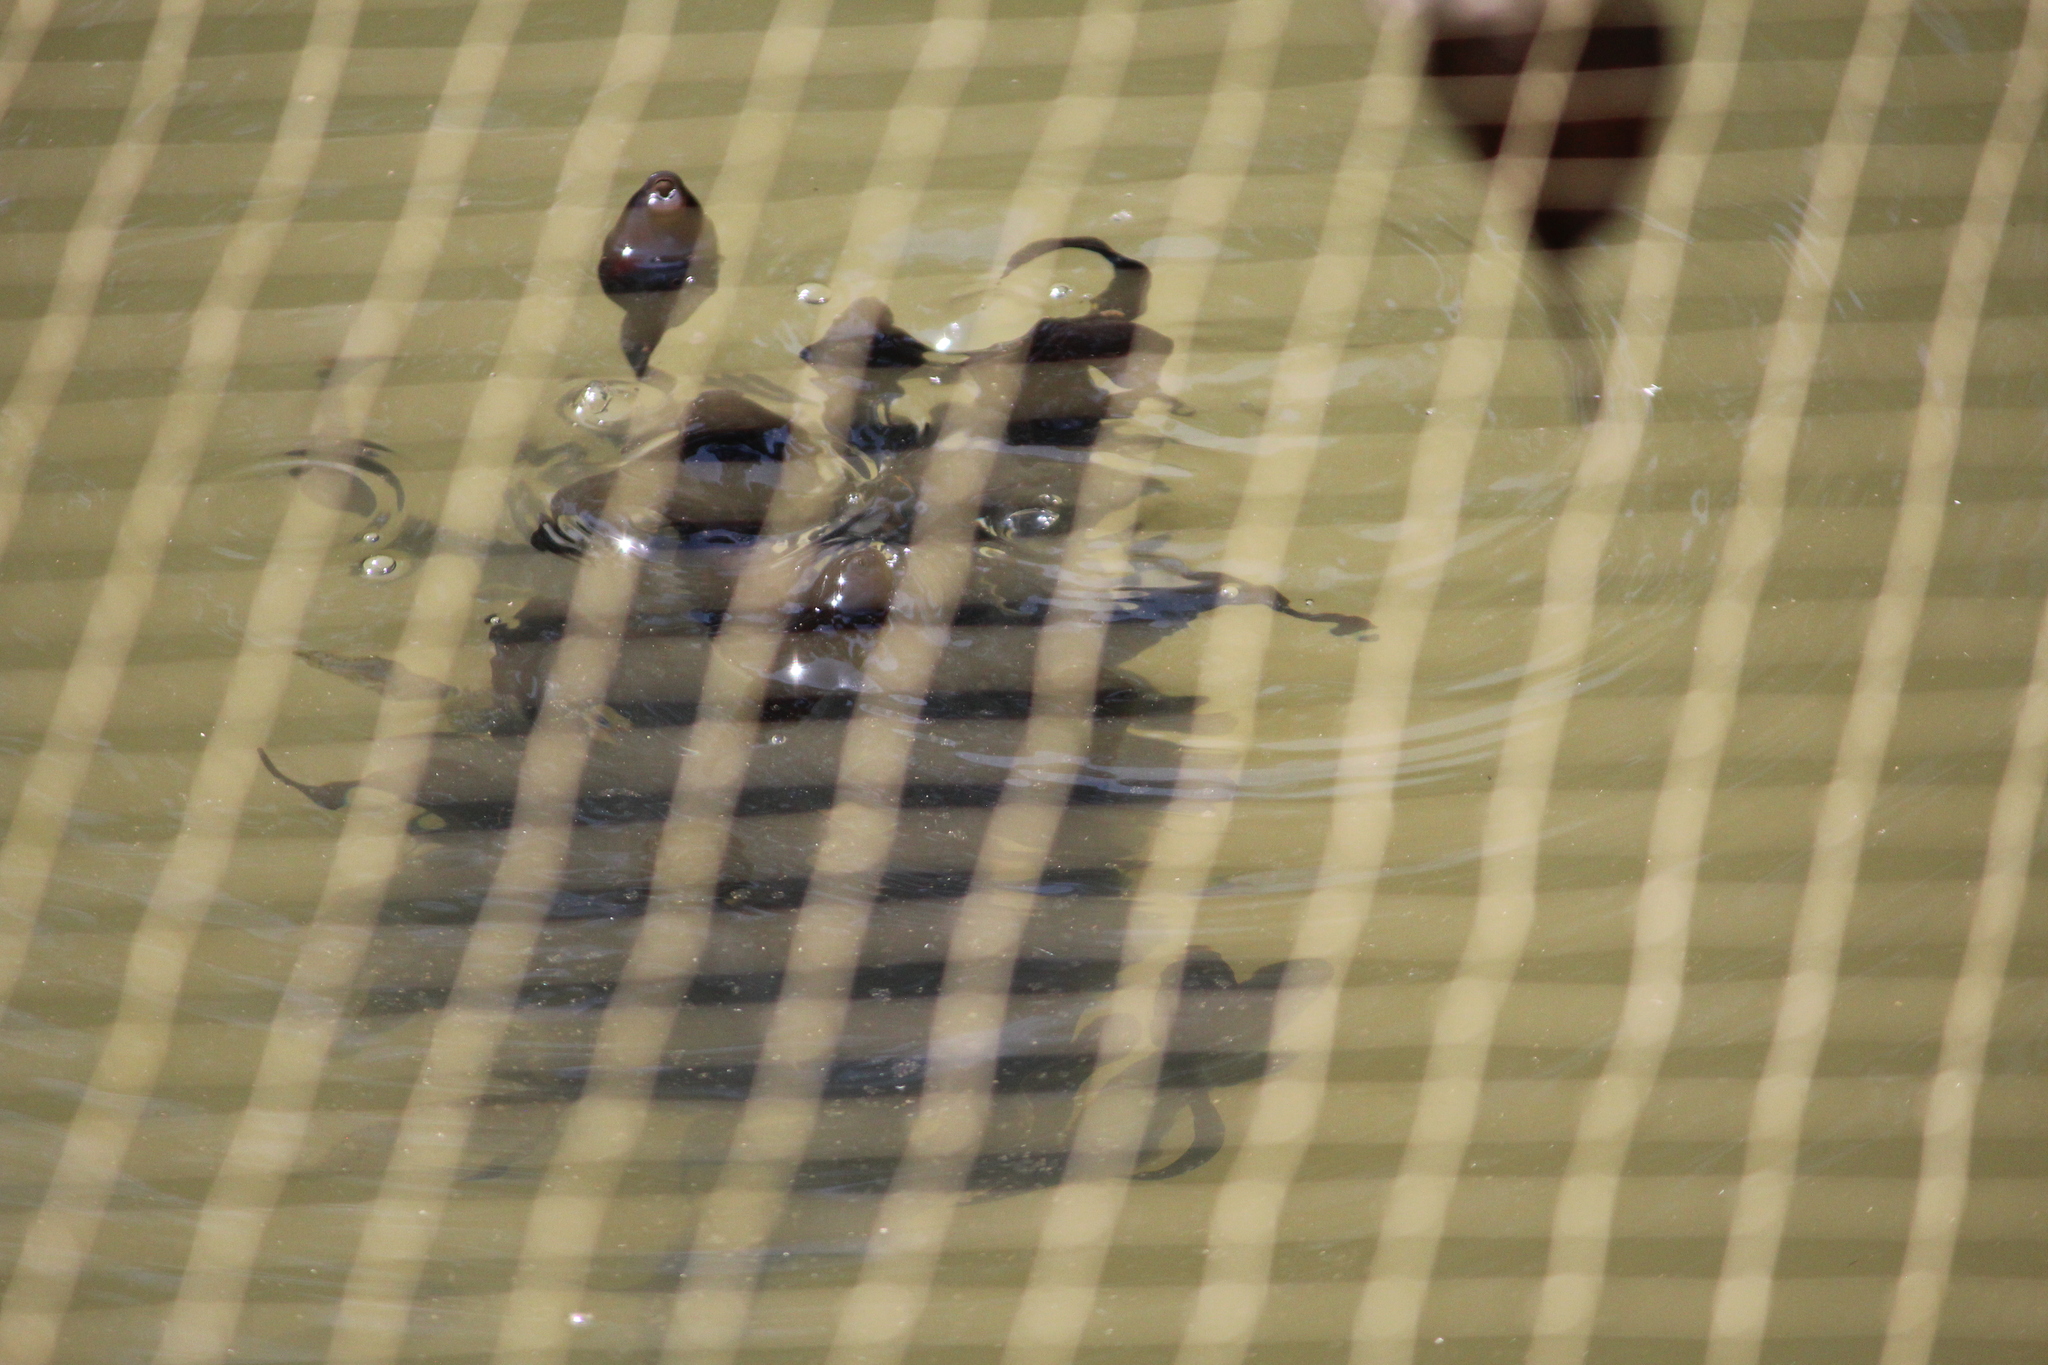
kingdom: Animalia
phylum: Chordata
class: Amphibia
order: Anura
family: Ranidae
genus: Clinotarsus
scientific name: Clinotarsus curtipes
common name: Bicoloured frog
